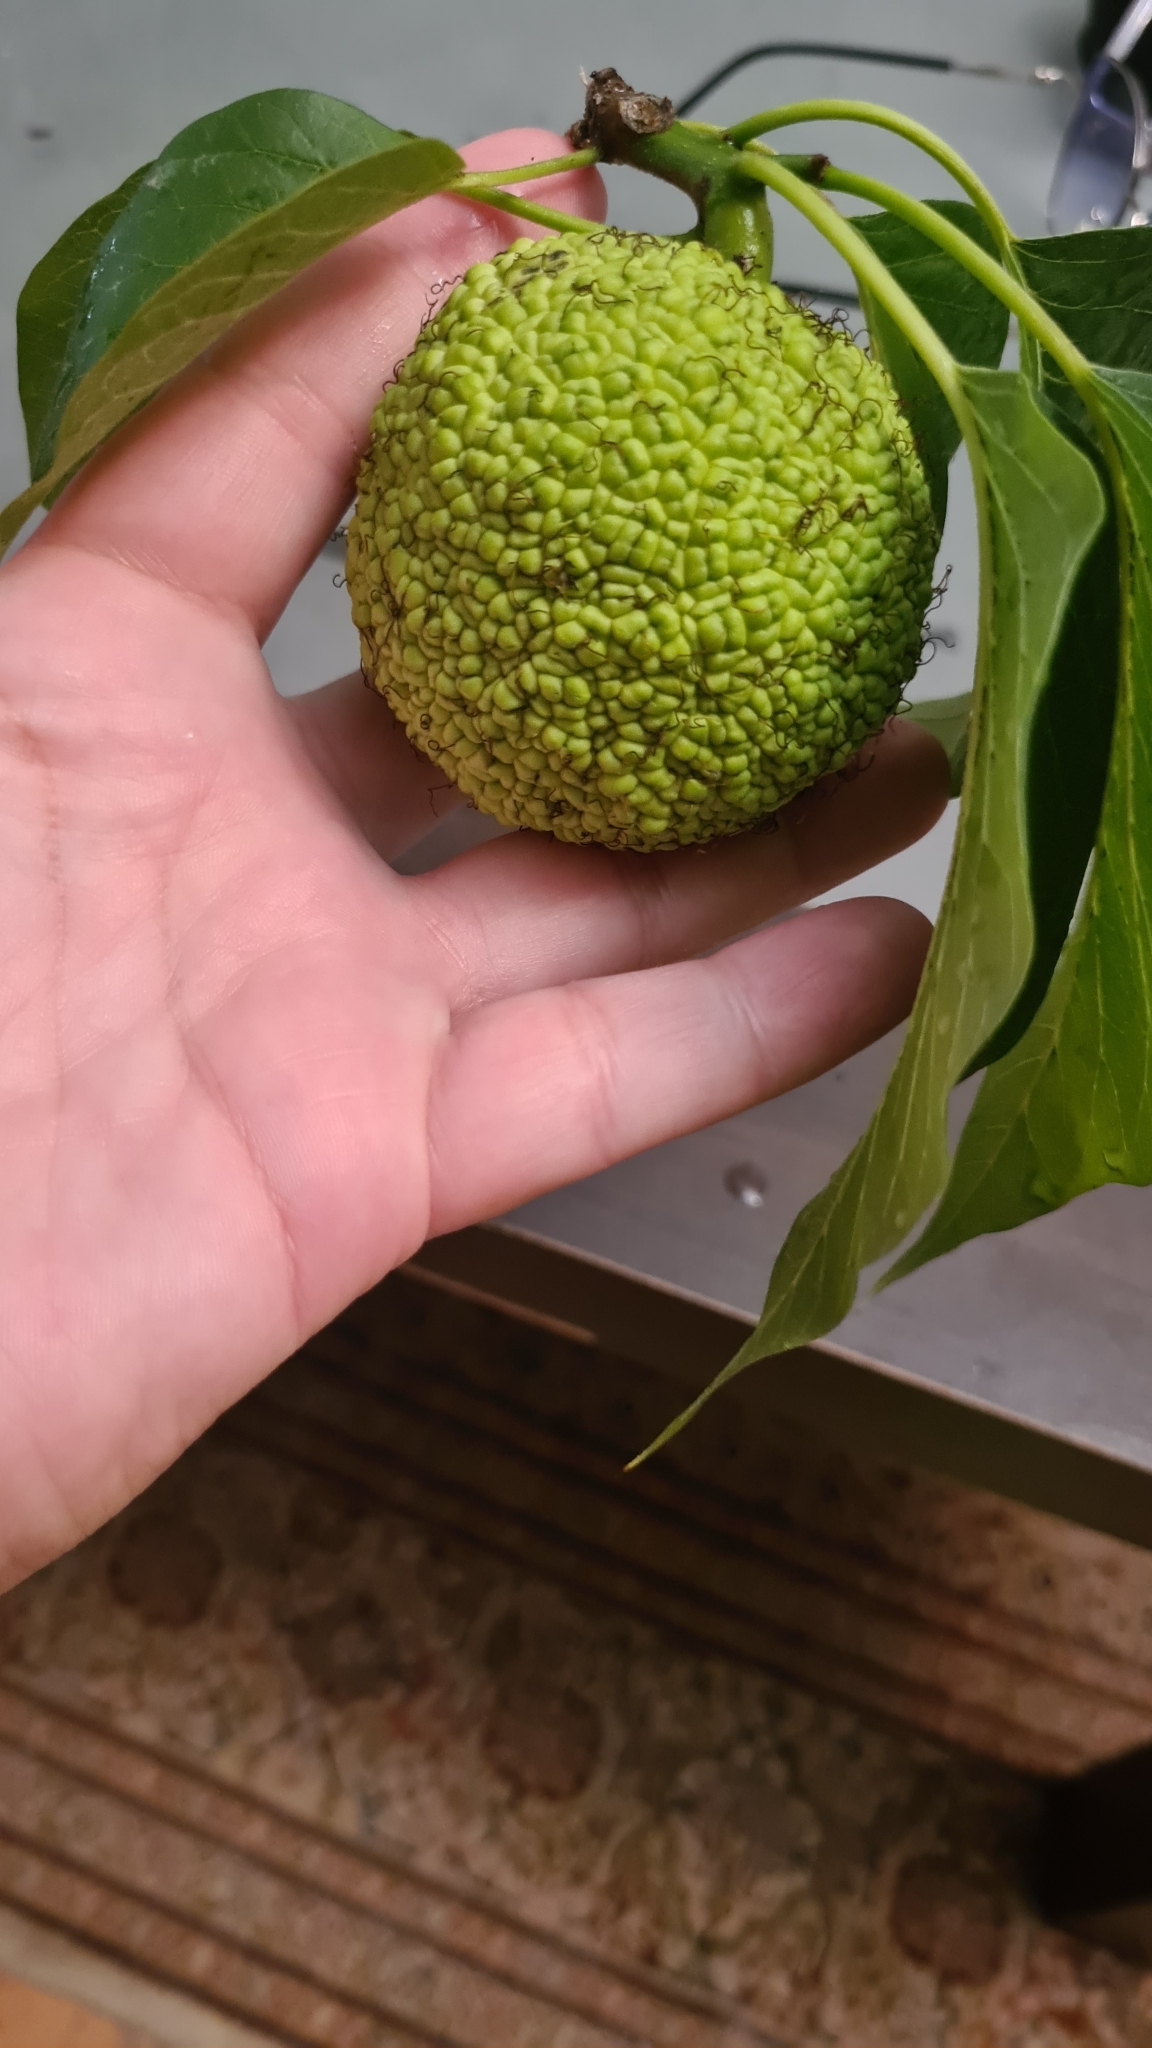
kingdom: Plantae
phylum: Tracheophyta
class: Magnoliopsida
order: Rosales
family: Moraceae
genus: Maclura
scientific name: Maclura pomifera
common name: Osage-orange
